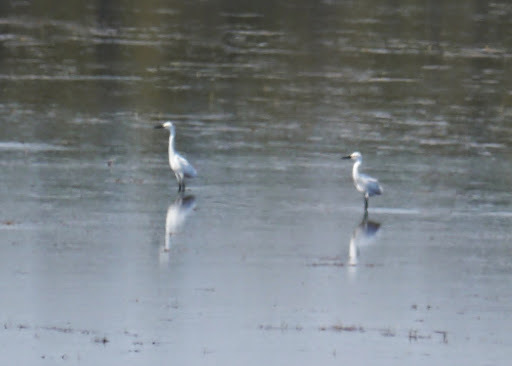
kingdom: Animalia
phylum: Chordata
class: Aves
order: Pelecaniformes
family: Ardeidae
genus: Egretta
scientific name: Egretta thula
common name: Snowy egret
